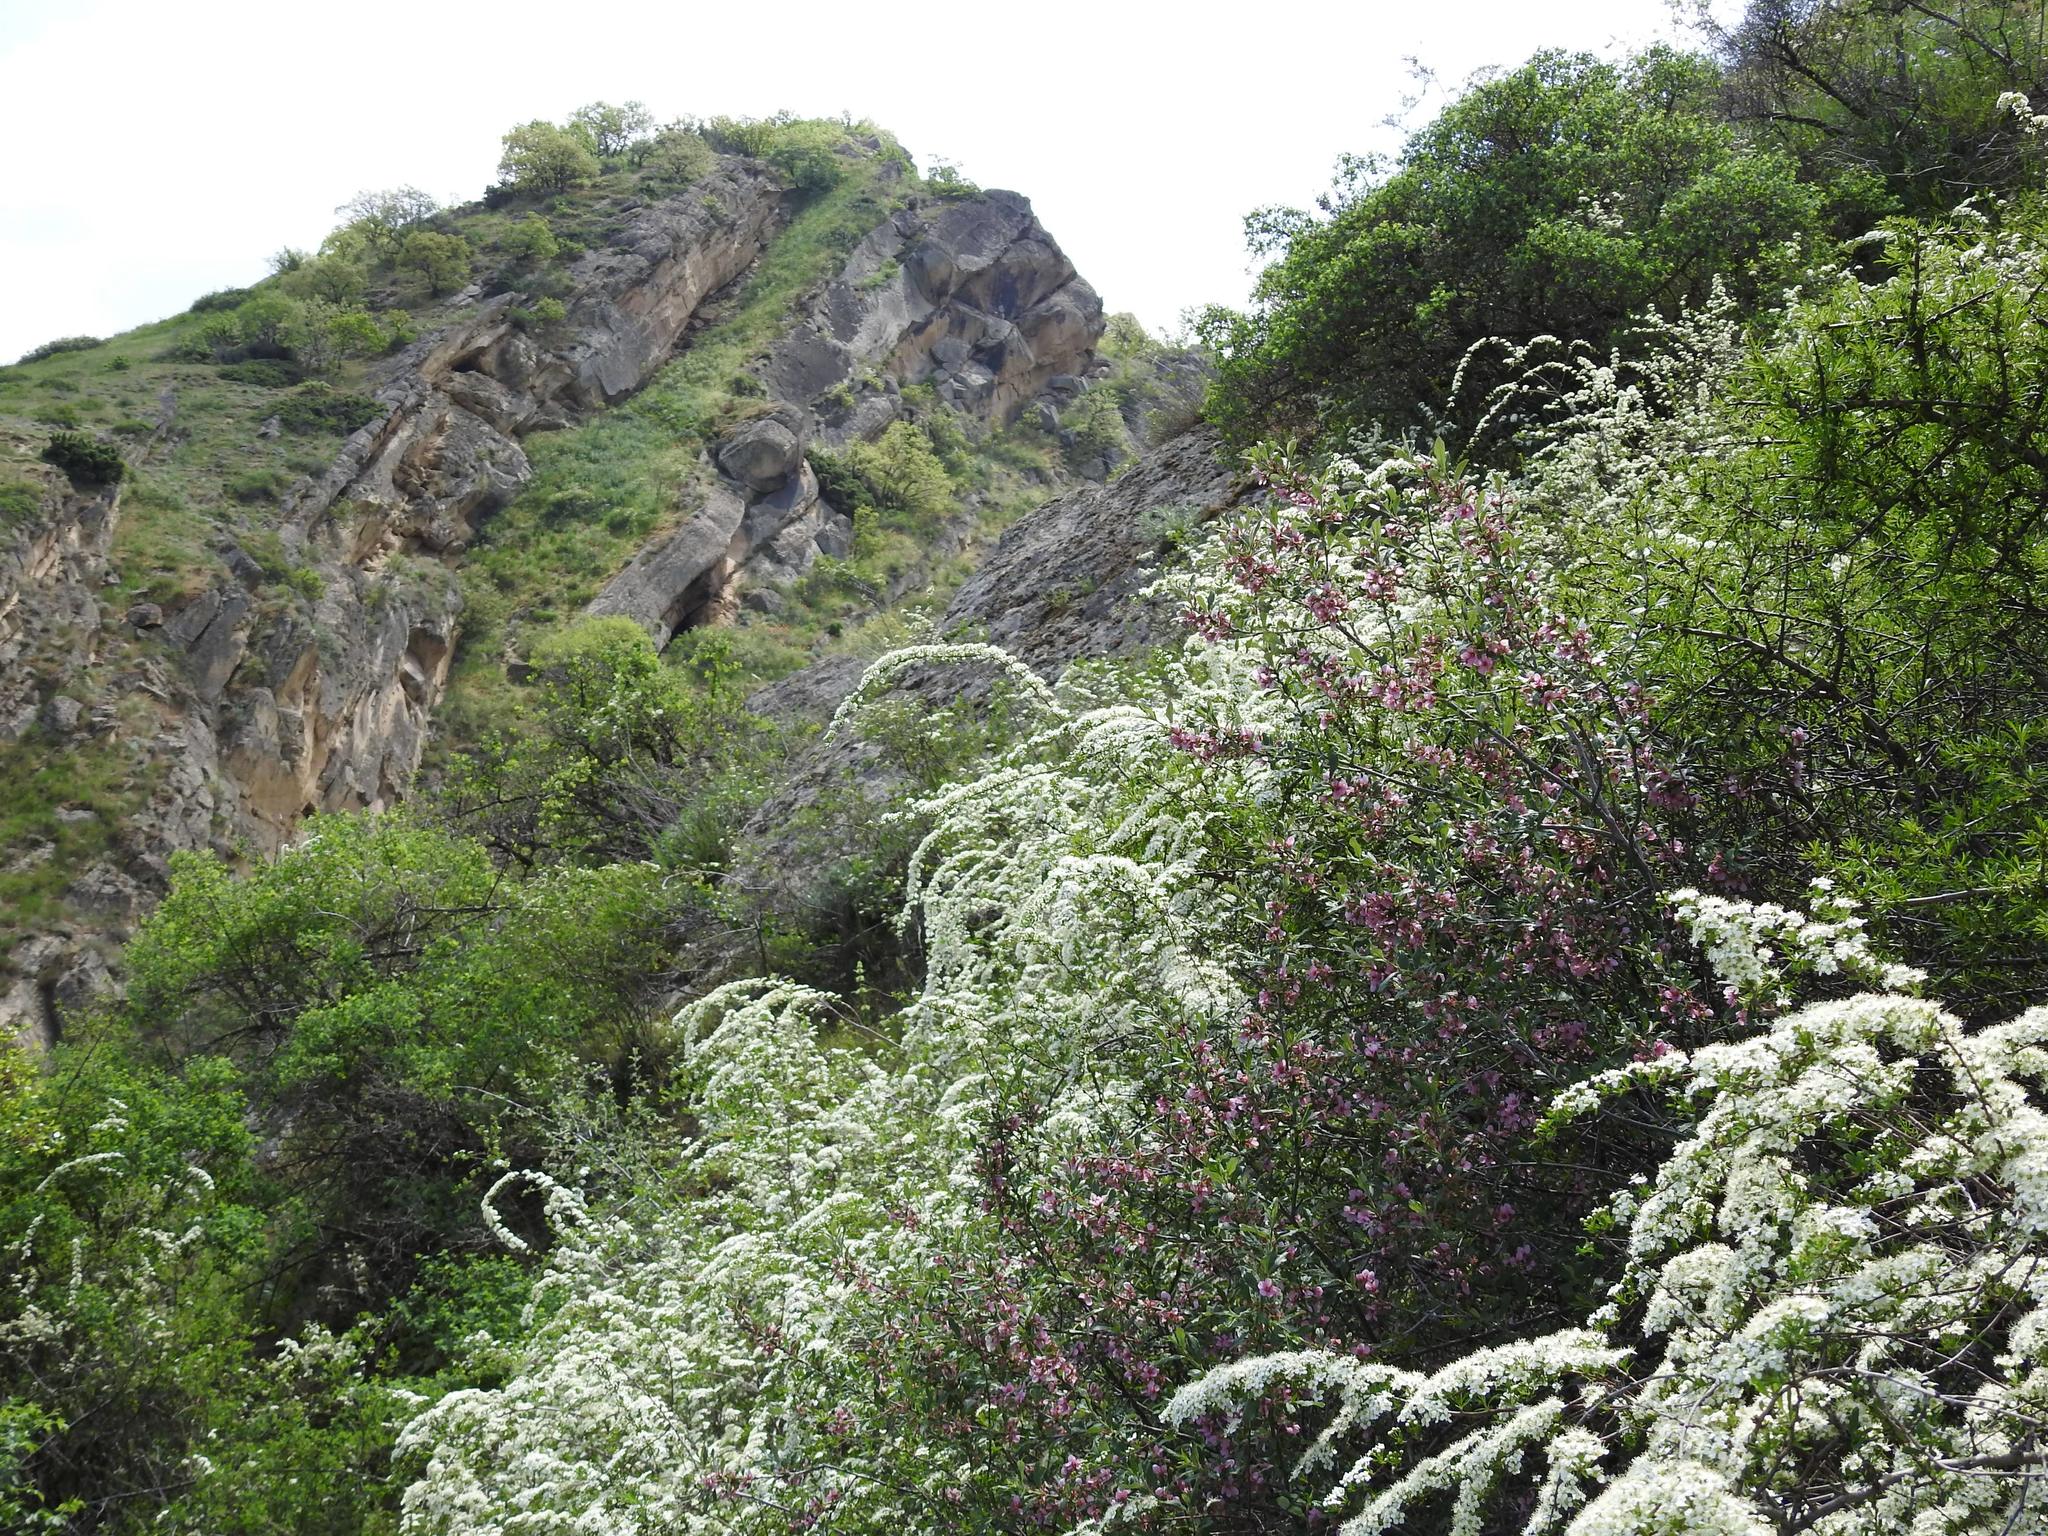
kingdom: Plantae
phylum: Tracheophyta
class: Magnoliopsida
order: Rosales
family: Rosaceae
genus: Spiraea
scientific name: Spiraea hypericifolia
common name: Iberian spirea
